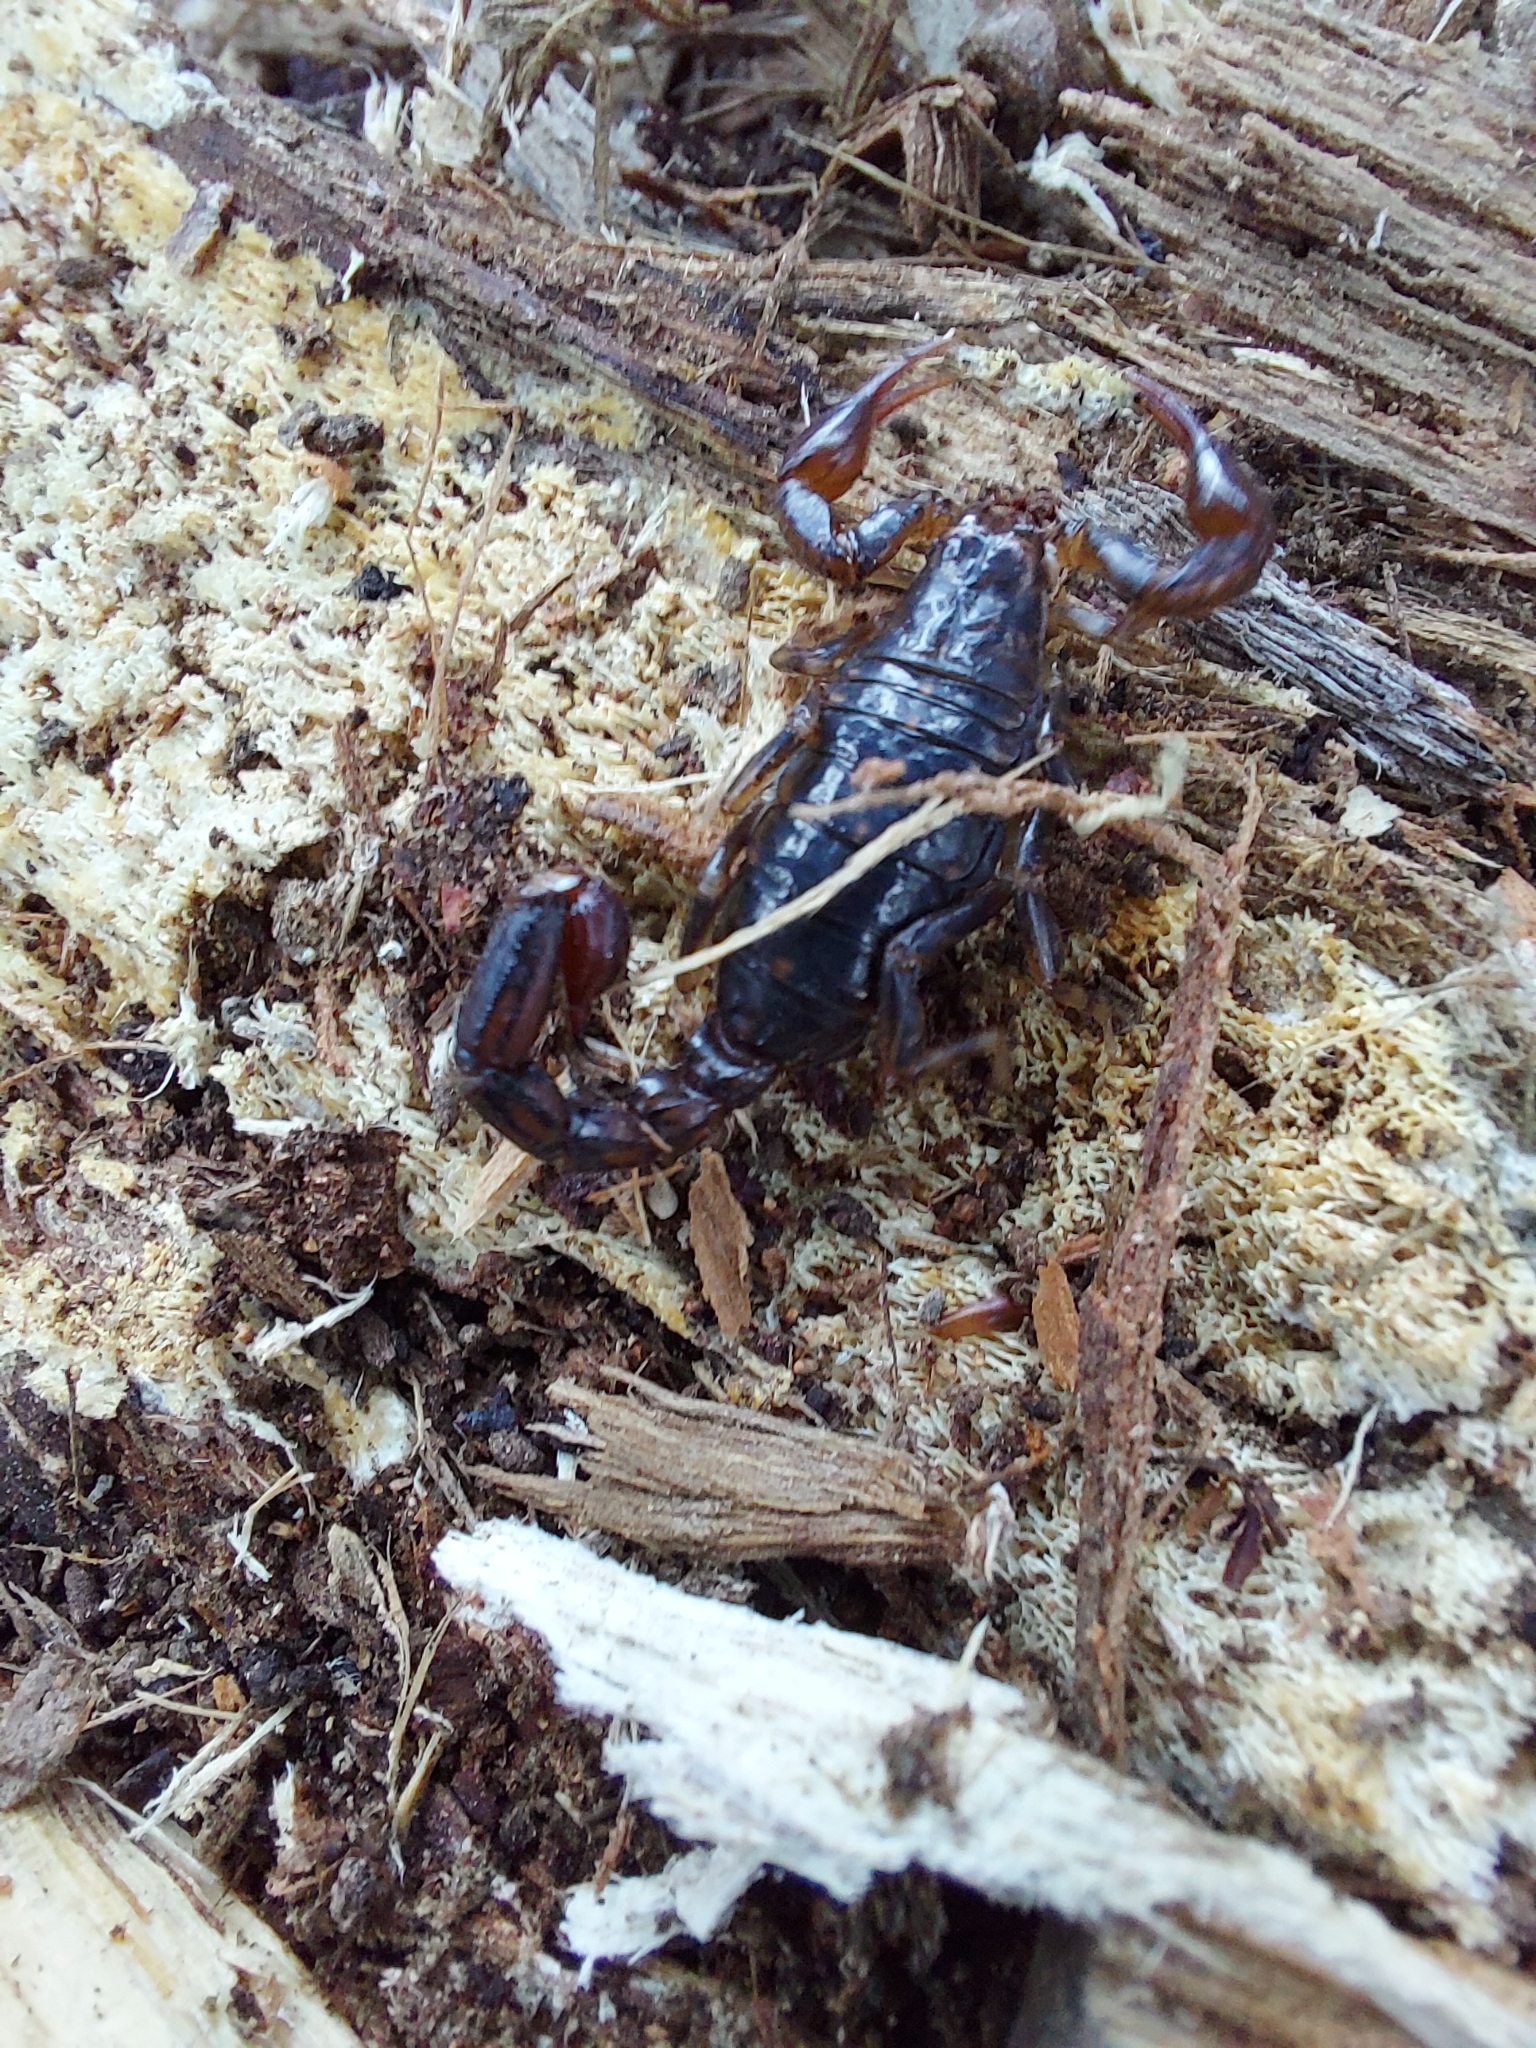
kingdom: Animalia
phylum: Arthropoda
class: Arachnida
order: Scorpiones
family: Bothriuridae
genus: Cercophonius
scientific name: Cercophonius squama
